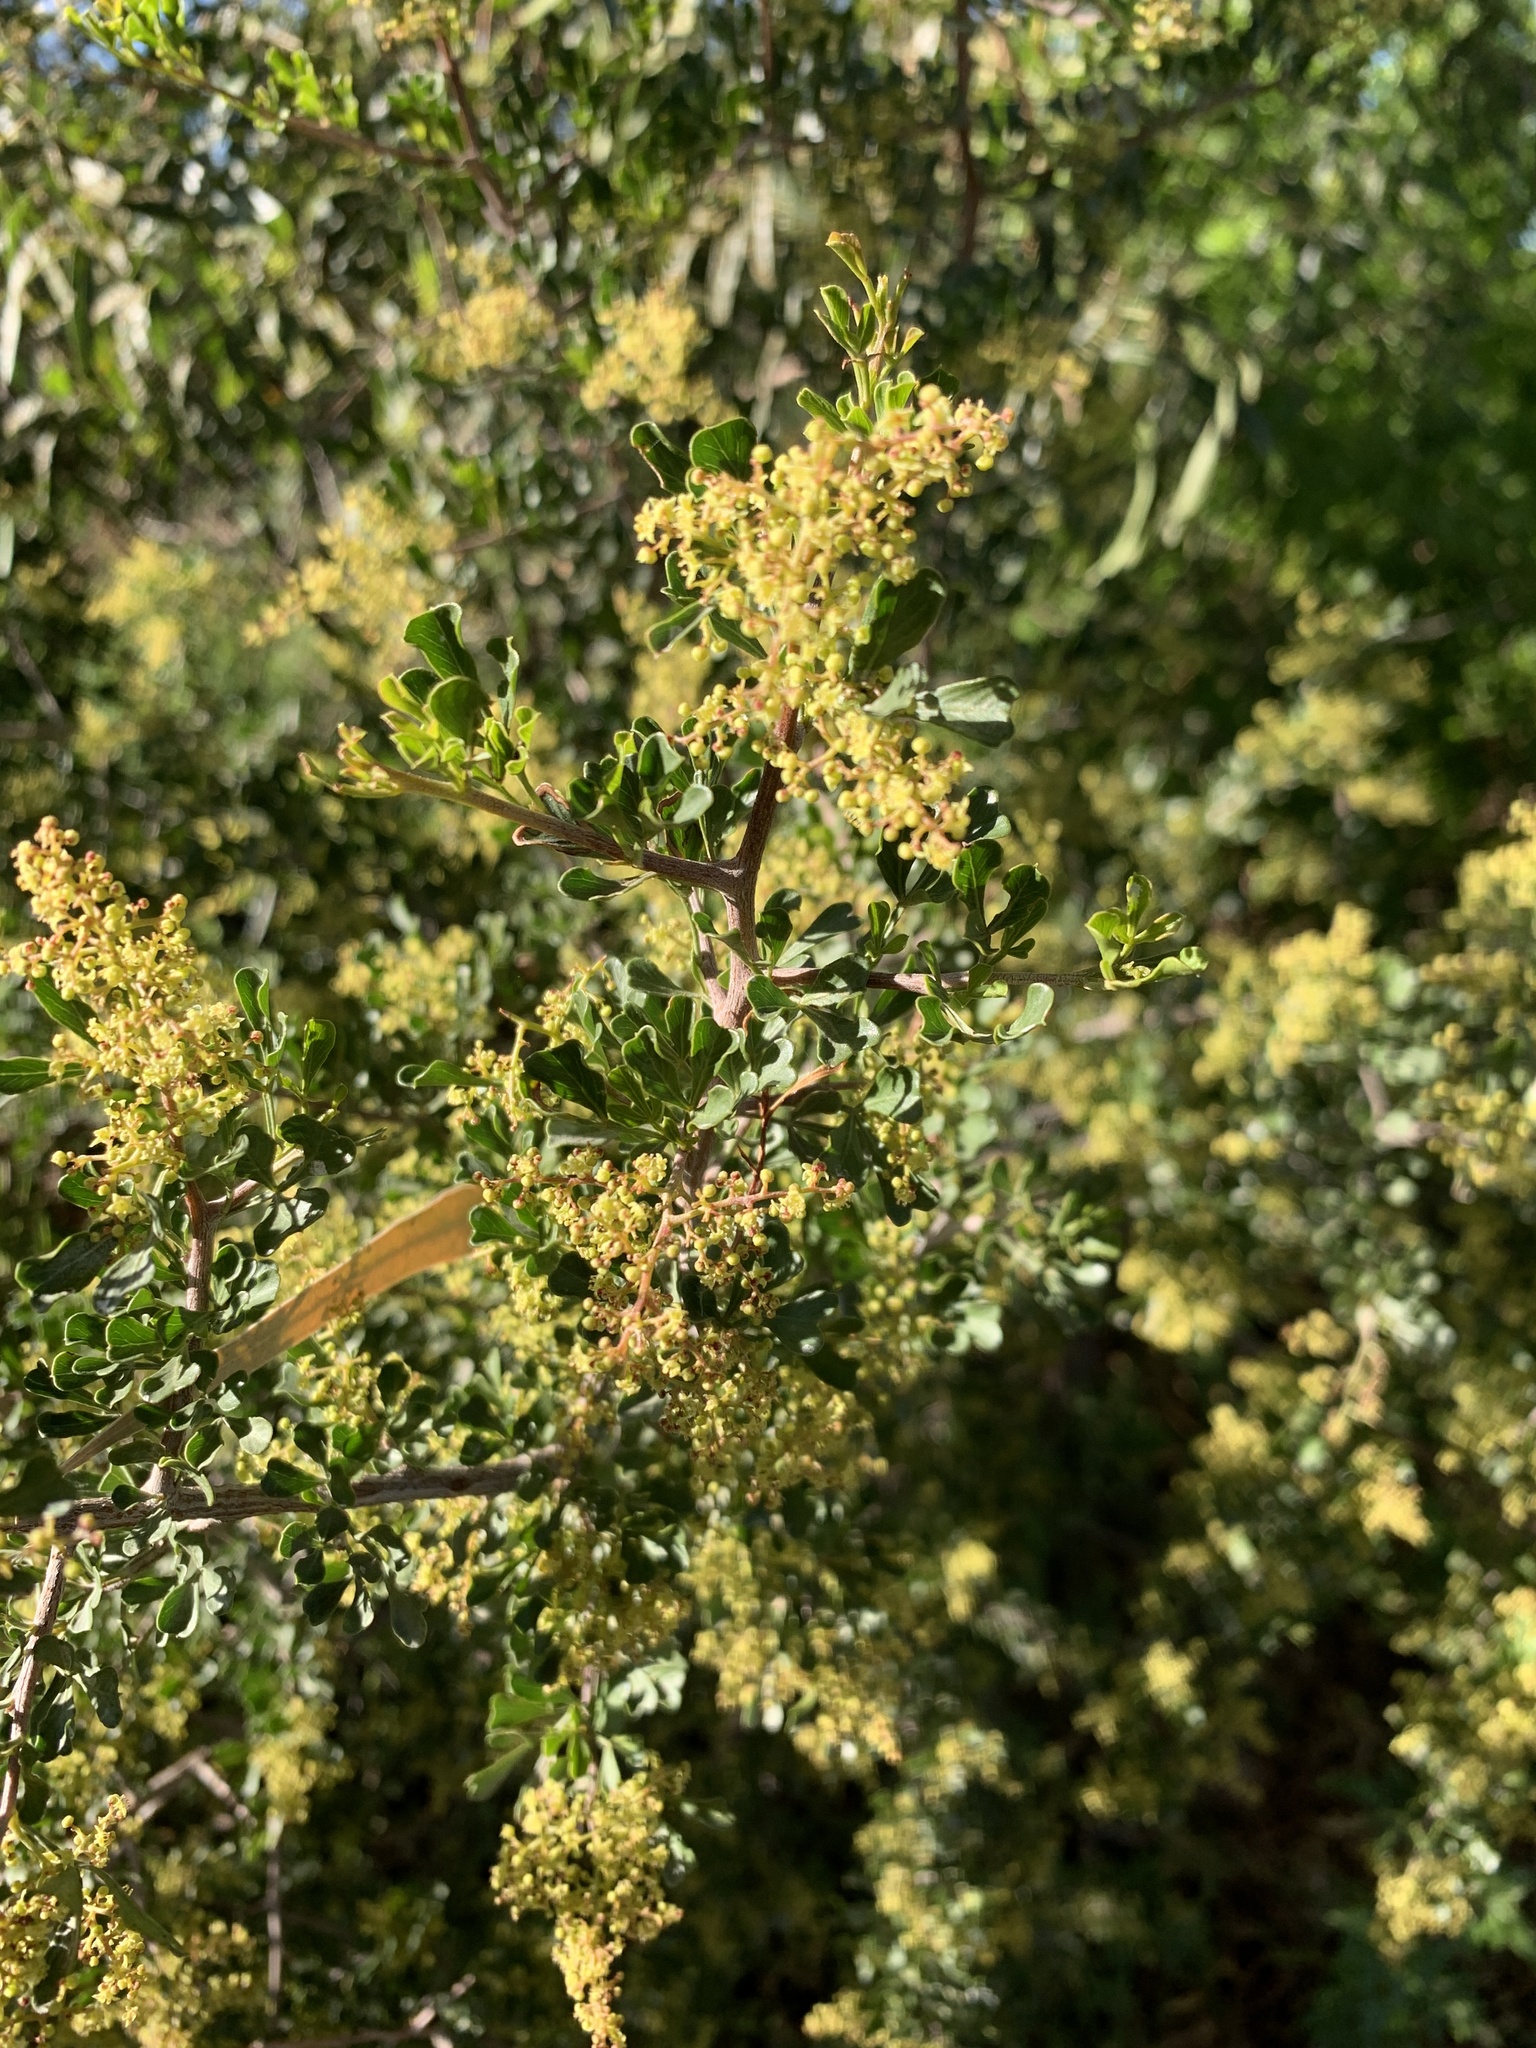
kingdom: Plantae
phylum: Tracheophyta
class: Magnoliopsida
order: Sapindales
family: Anacardiaceae
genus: Searsia
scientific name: Searsia burchellii
